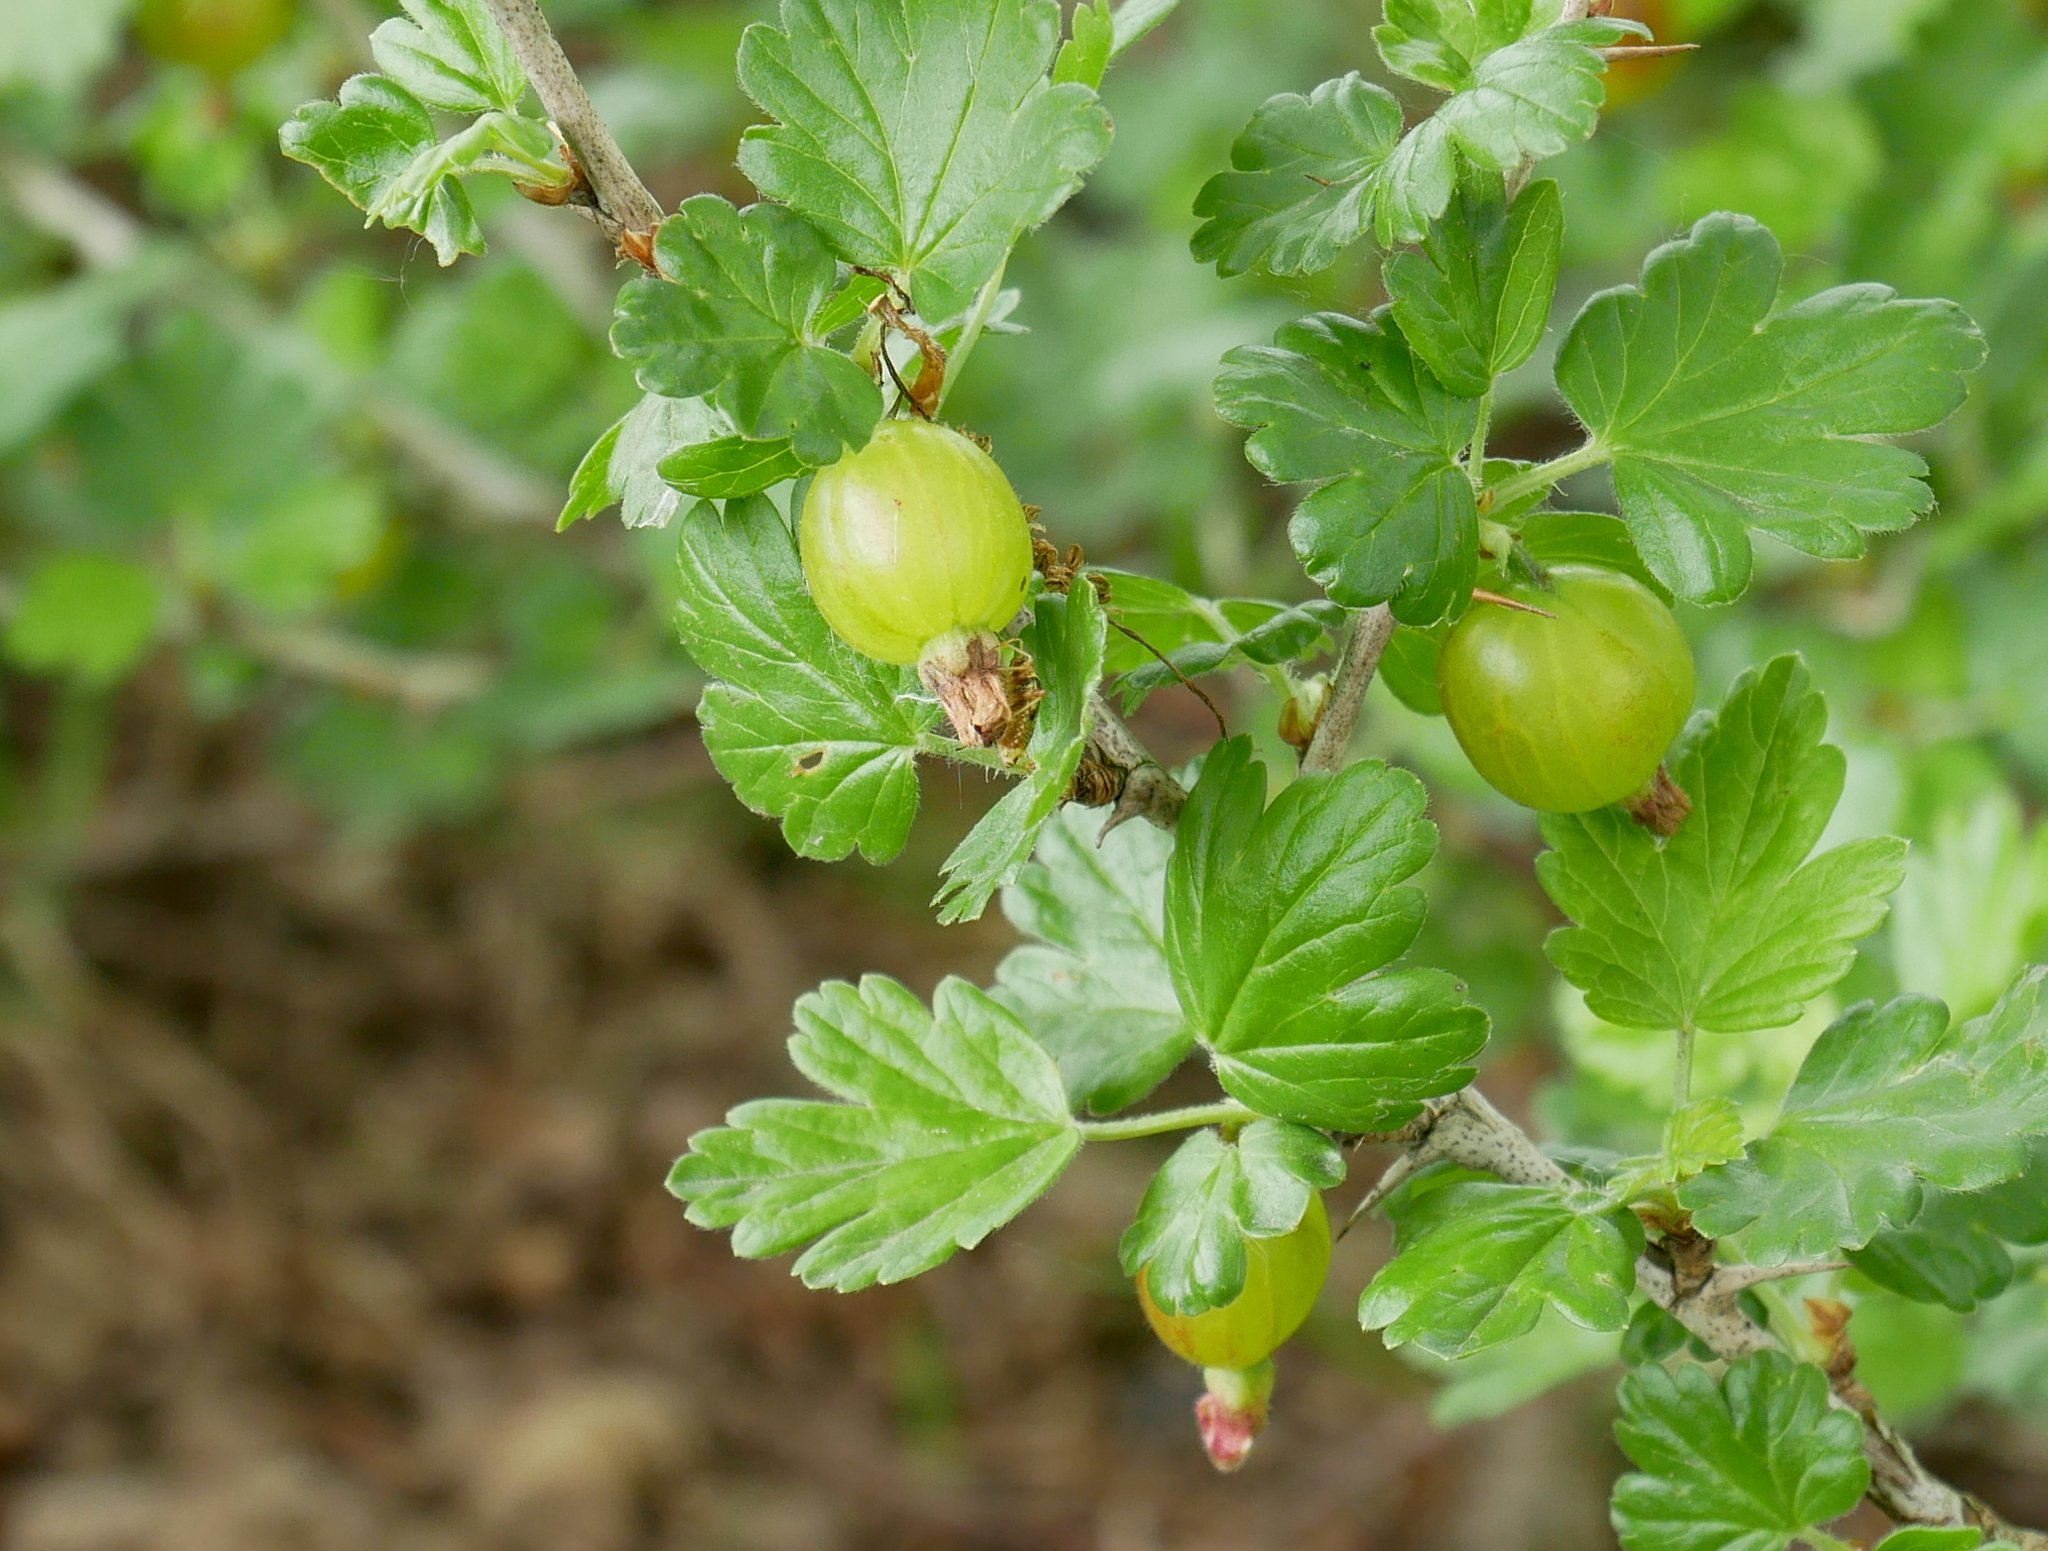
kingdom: Plantae
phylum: Tracheophyta
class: Magnoliopsida
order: Saxifragales
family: Grossulariaceae
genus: Ribes
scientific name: Ribes uva-crispa
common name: Gooseberry
